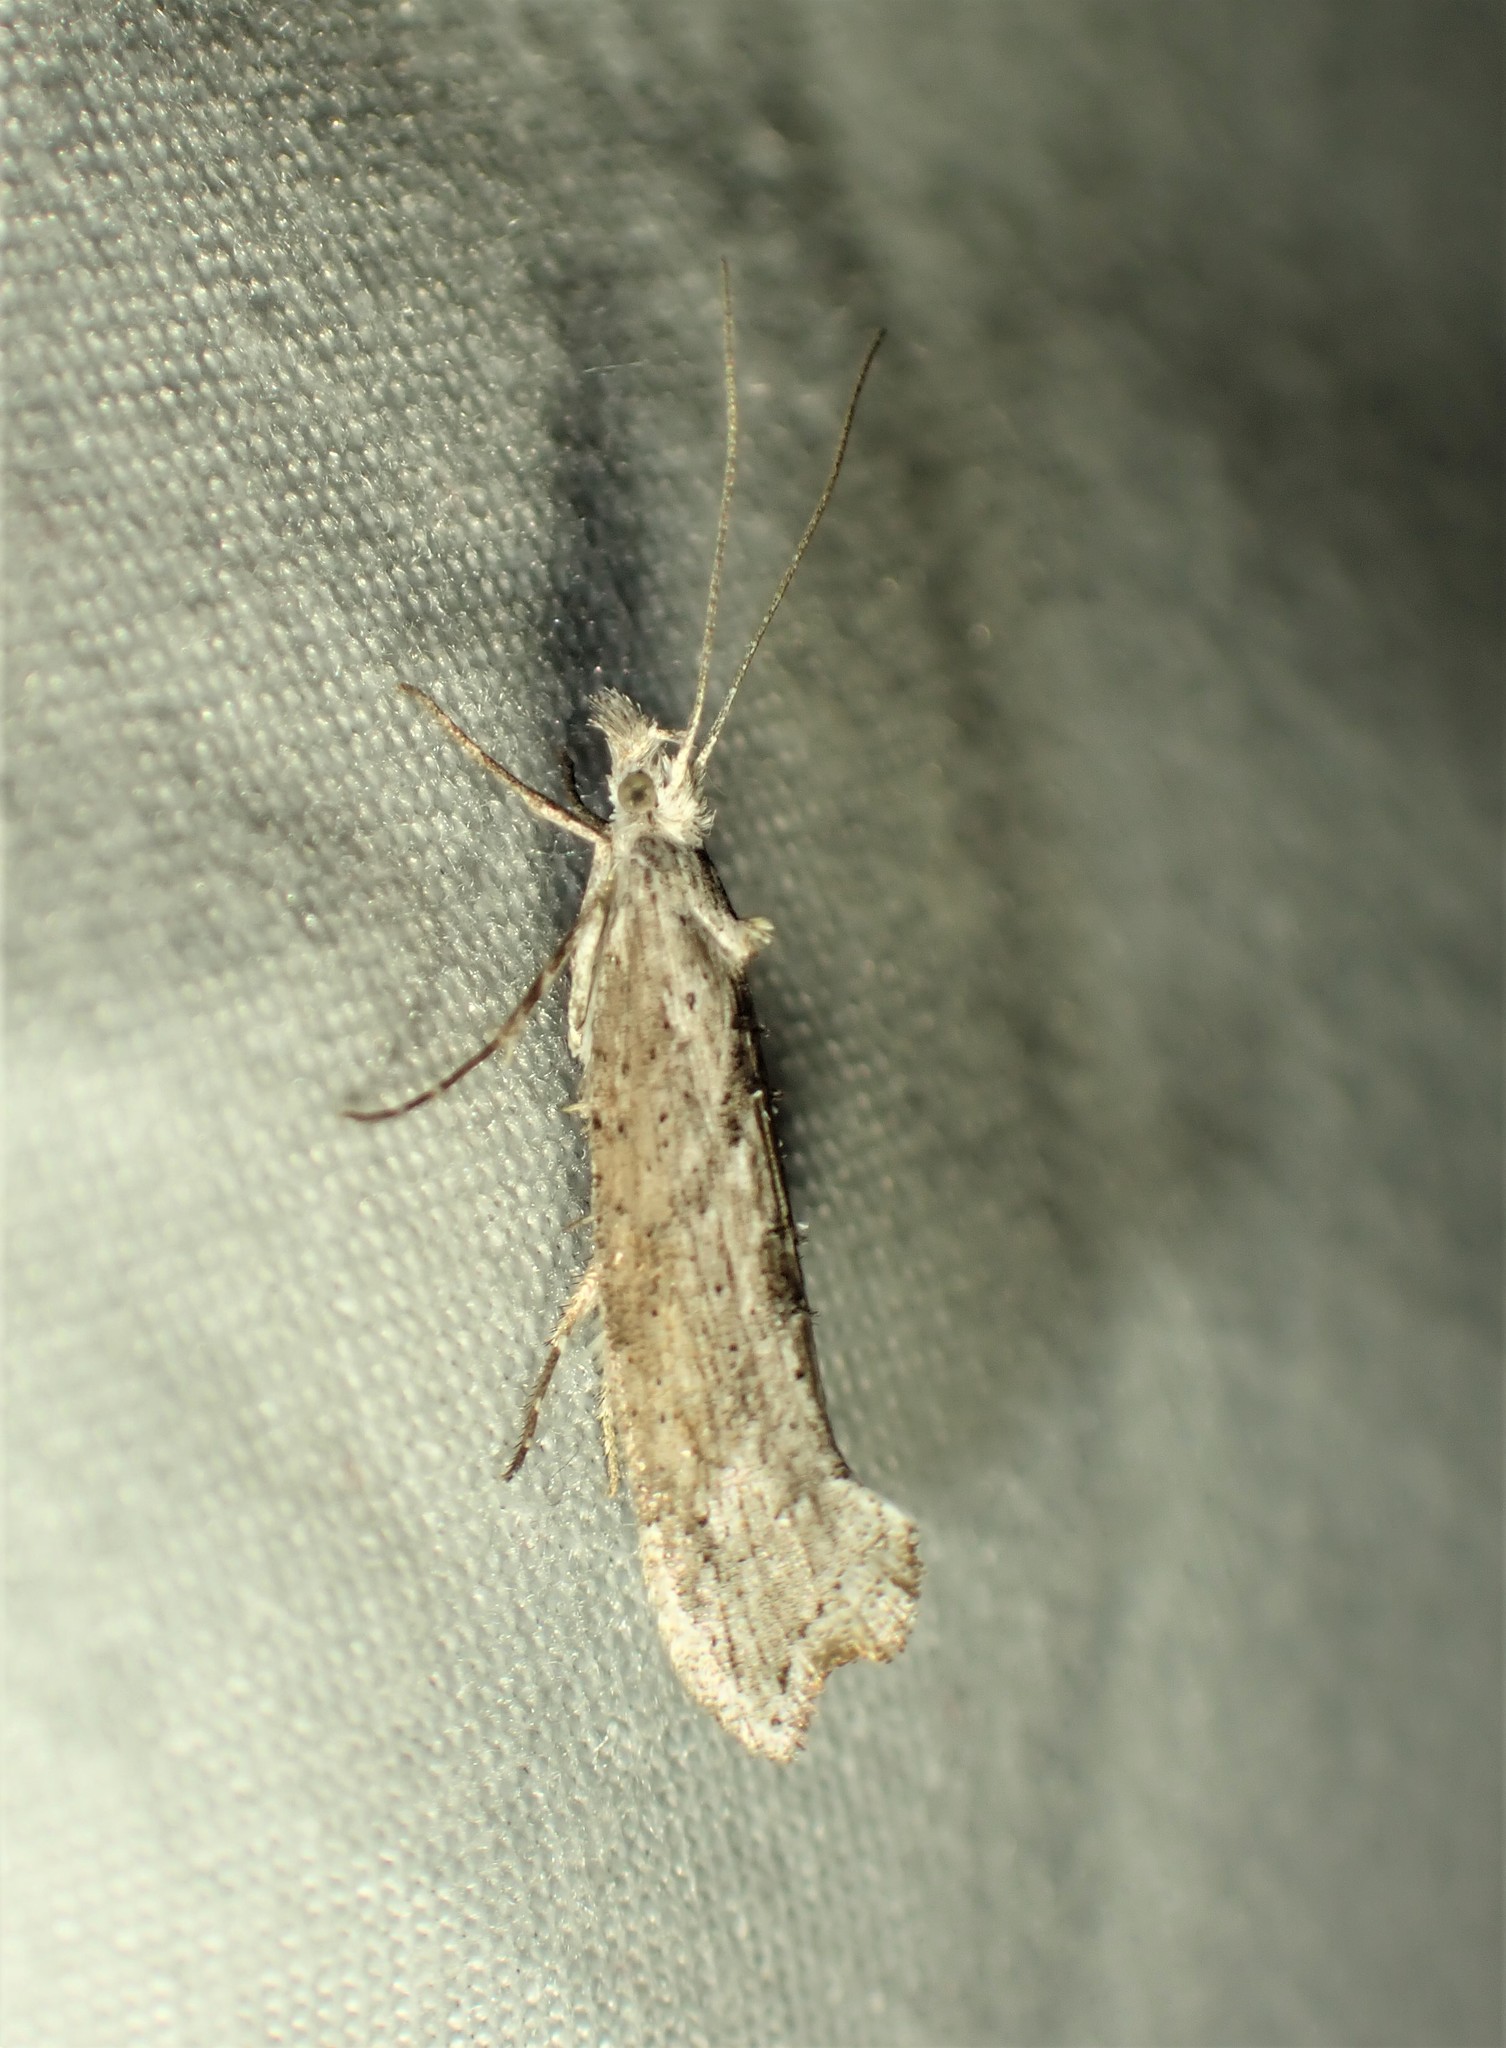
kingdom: Animalia
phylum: Arthropoda
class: Insecta
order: Lepidoptera
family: Ypsolophidae
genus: Ypsolopha
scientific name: Ypsolopha falciferella
